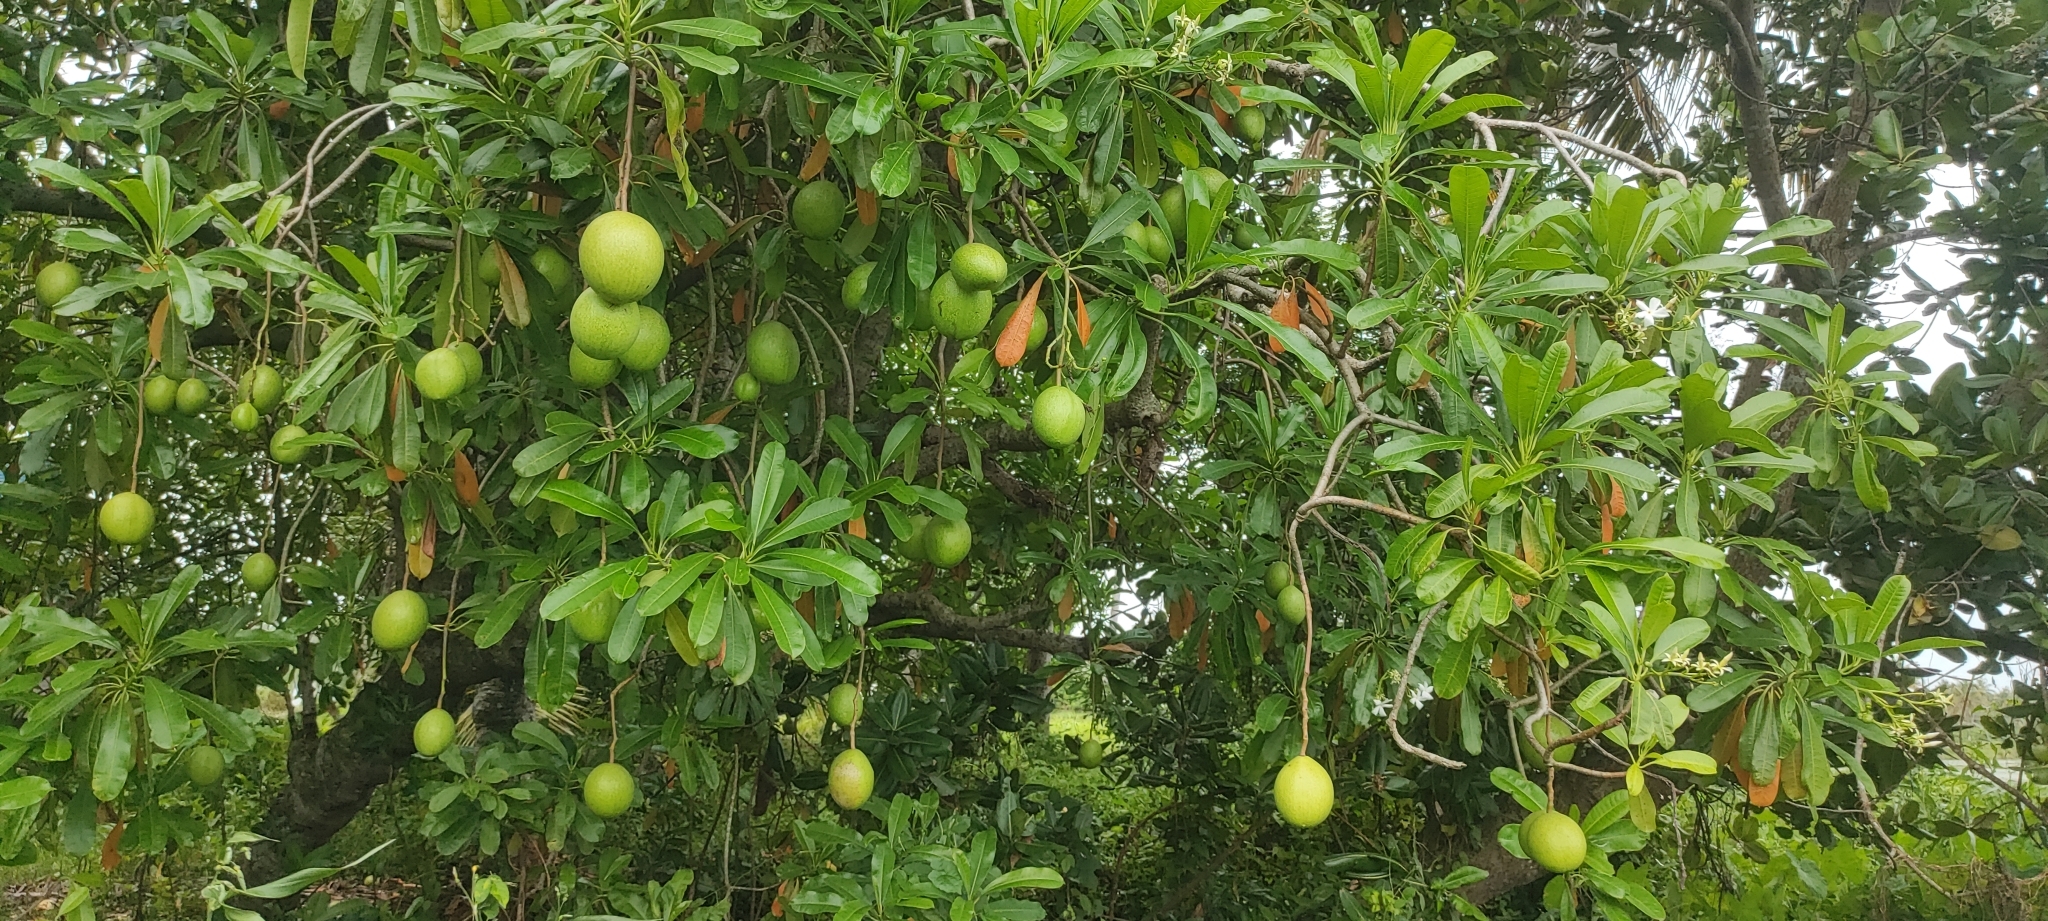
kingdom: Plantae
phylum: Tracheophyta
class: Magnoliopsida
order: Gentianales
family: Apocynaceae
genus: Cerbera
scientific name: Cerbera odollam
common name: Pong-pong
